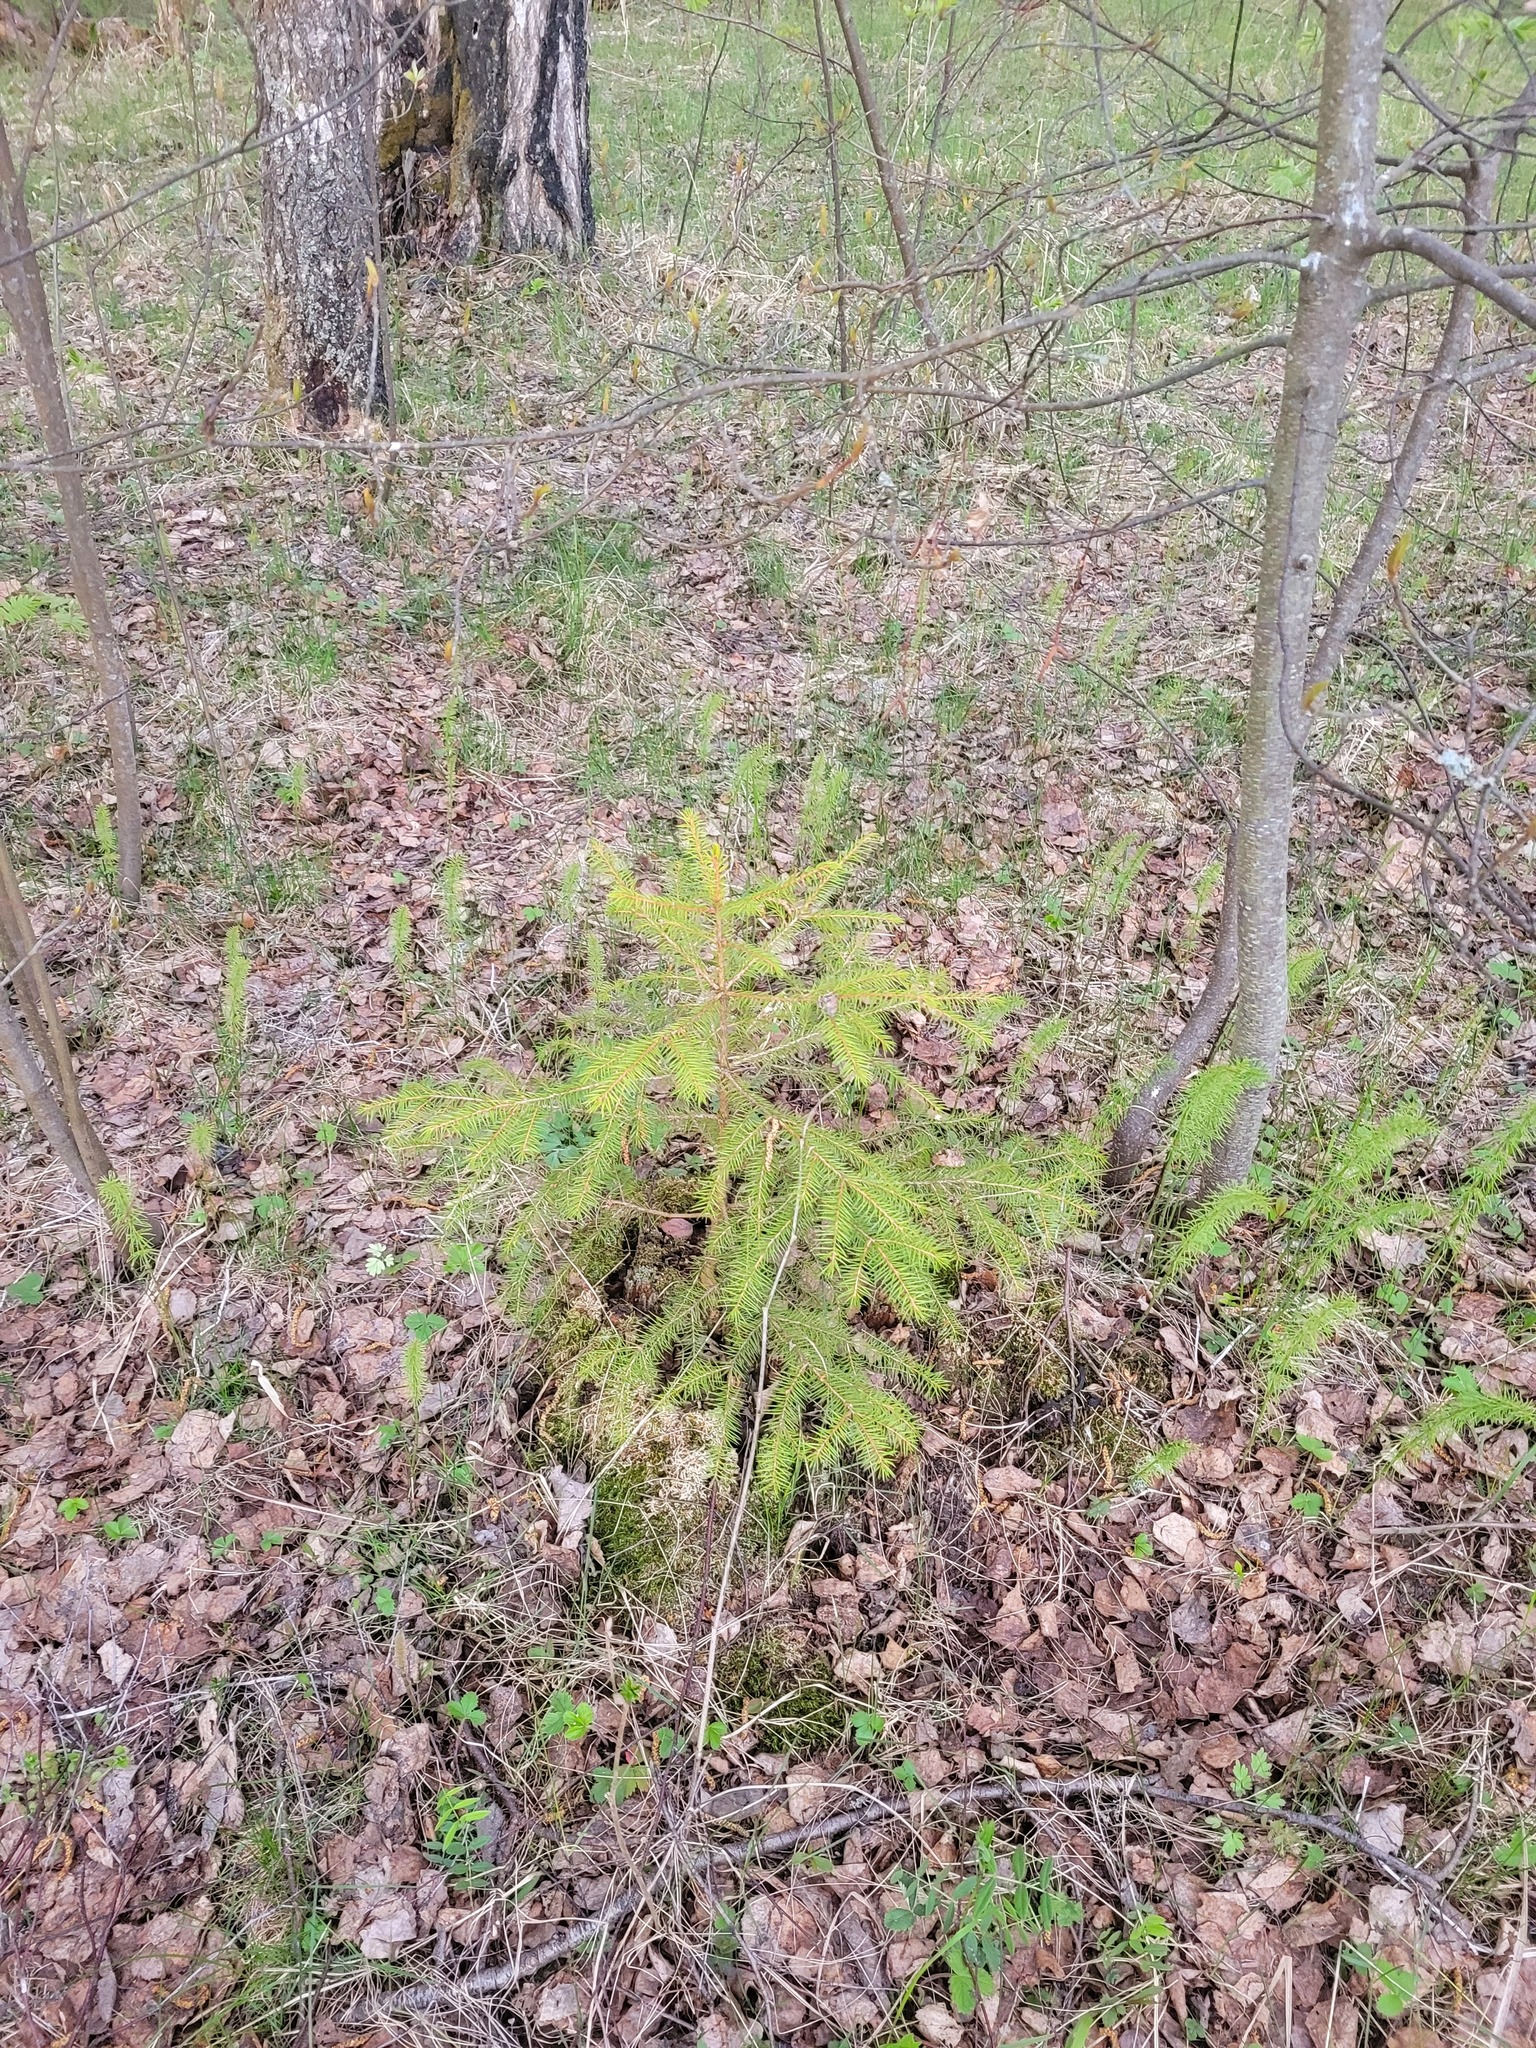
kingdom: Plantae
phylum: Tracheophyta
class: Pinopsida
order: Pinales
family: Pinaceae
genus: Picea
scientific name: Picea abies
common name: Norway spruce
